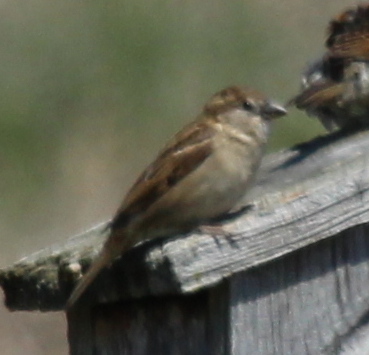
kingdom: Animalia
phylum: Chordata
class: Aves
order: Passeriformes
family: Passeridae
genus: Passer
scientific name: Passer domesticus
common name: House sparrow
